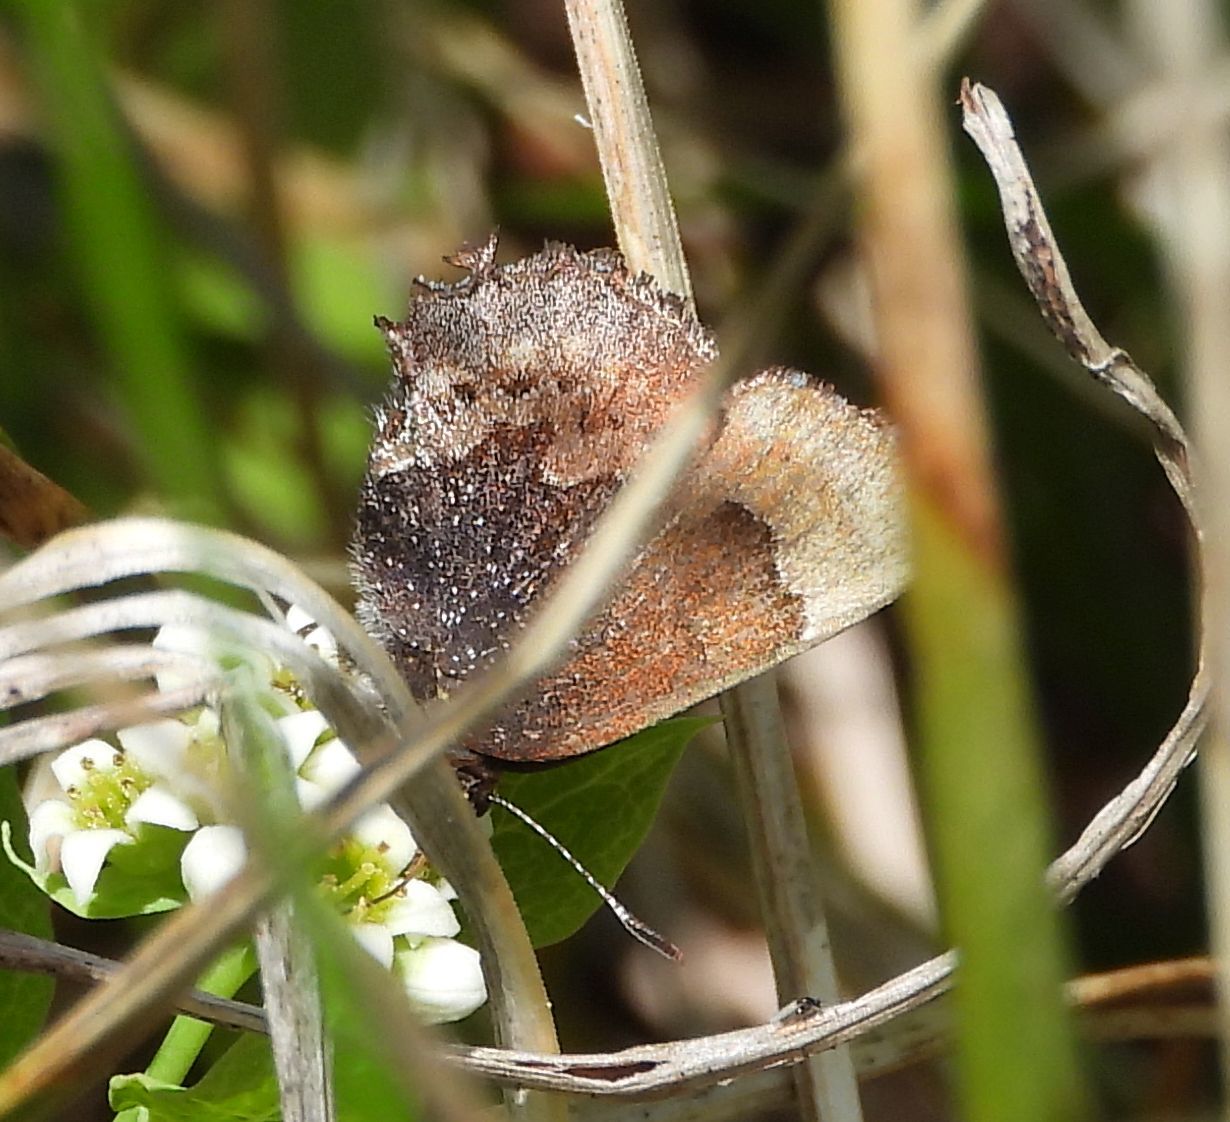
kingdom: Animalia
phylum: Arthropoda
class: Insecta
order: Lepidoptera
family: Lycaenidae
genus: Incisalia
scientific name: Incisalia henrici
